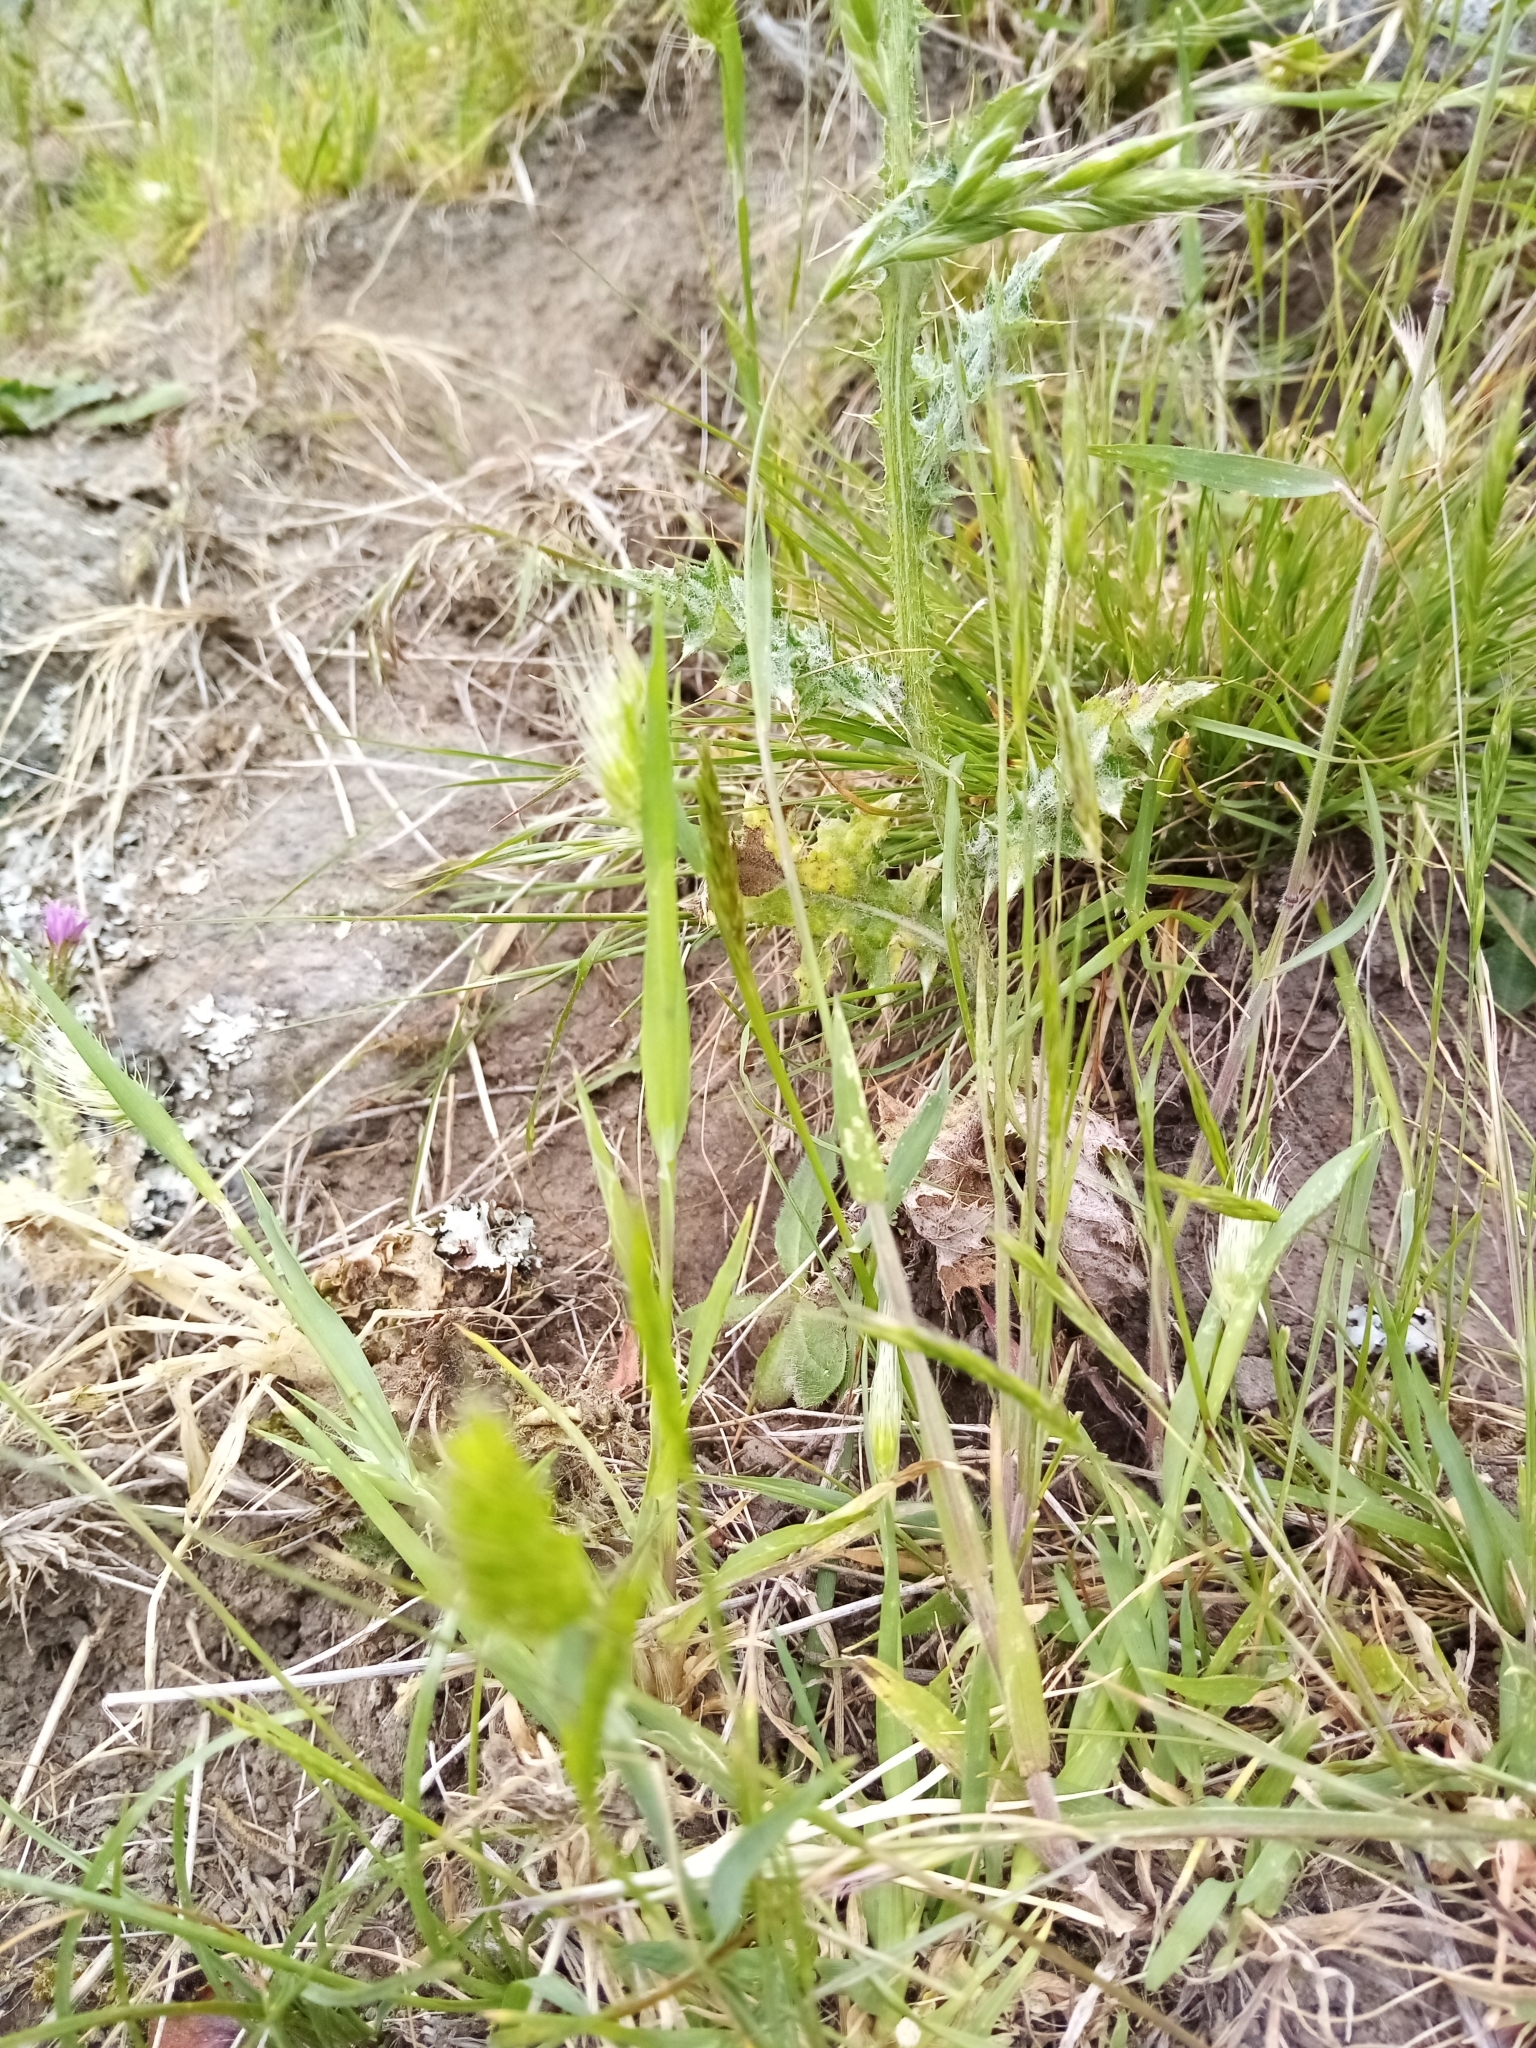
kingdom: Plantae
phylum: Tracheophyta
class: Liliopsida
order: Poales
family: Poaceae
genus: Cynosurus
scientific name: Cynosurus echinatus
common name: Rough dog's-tail
